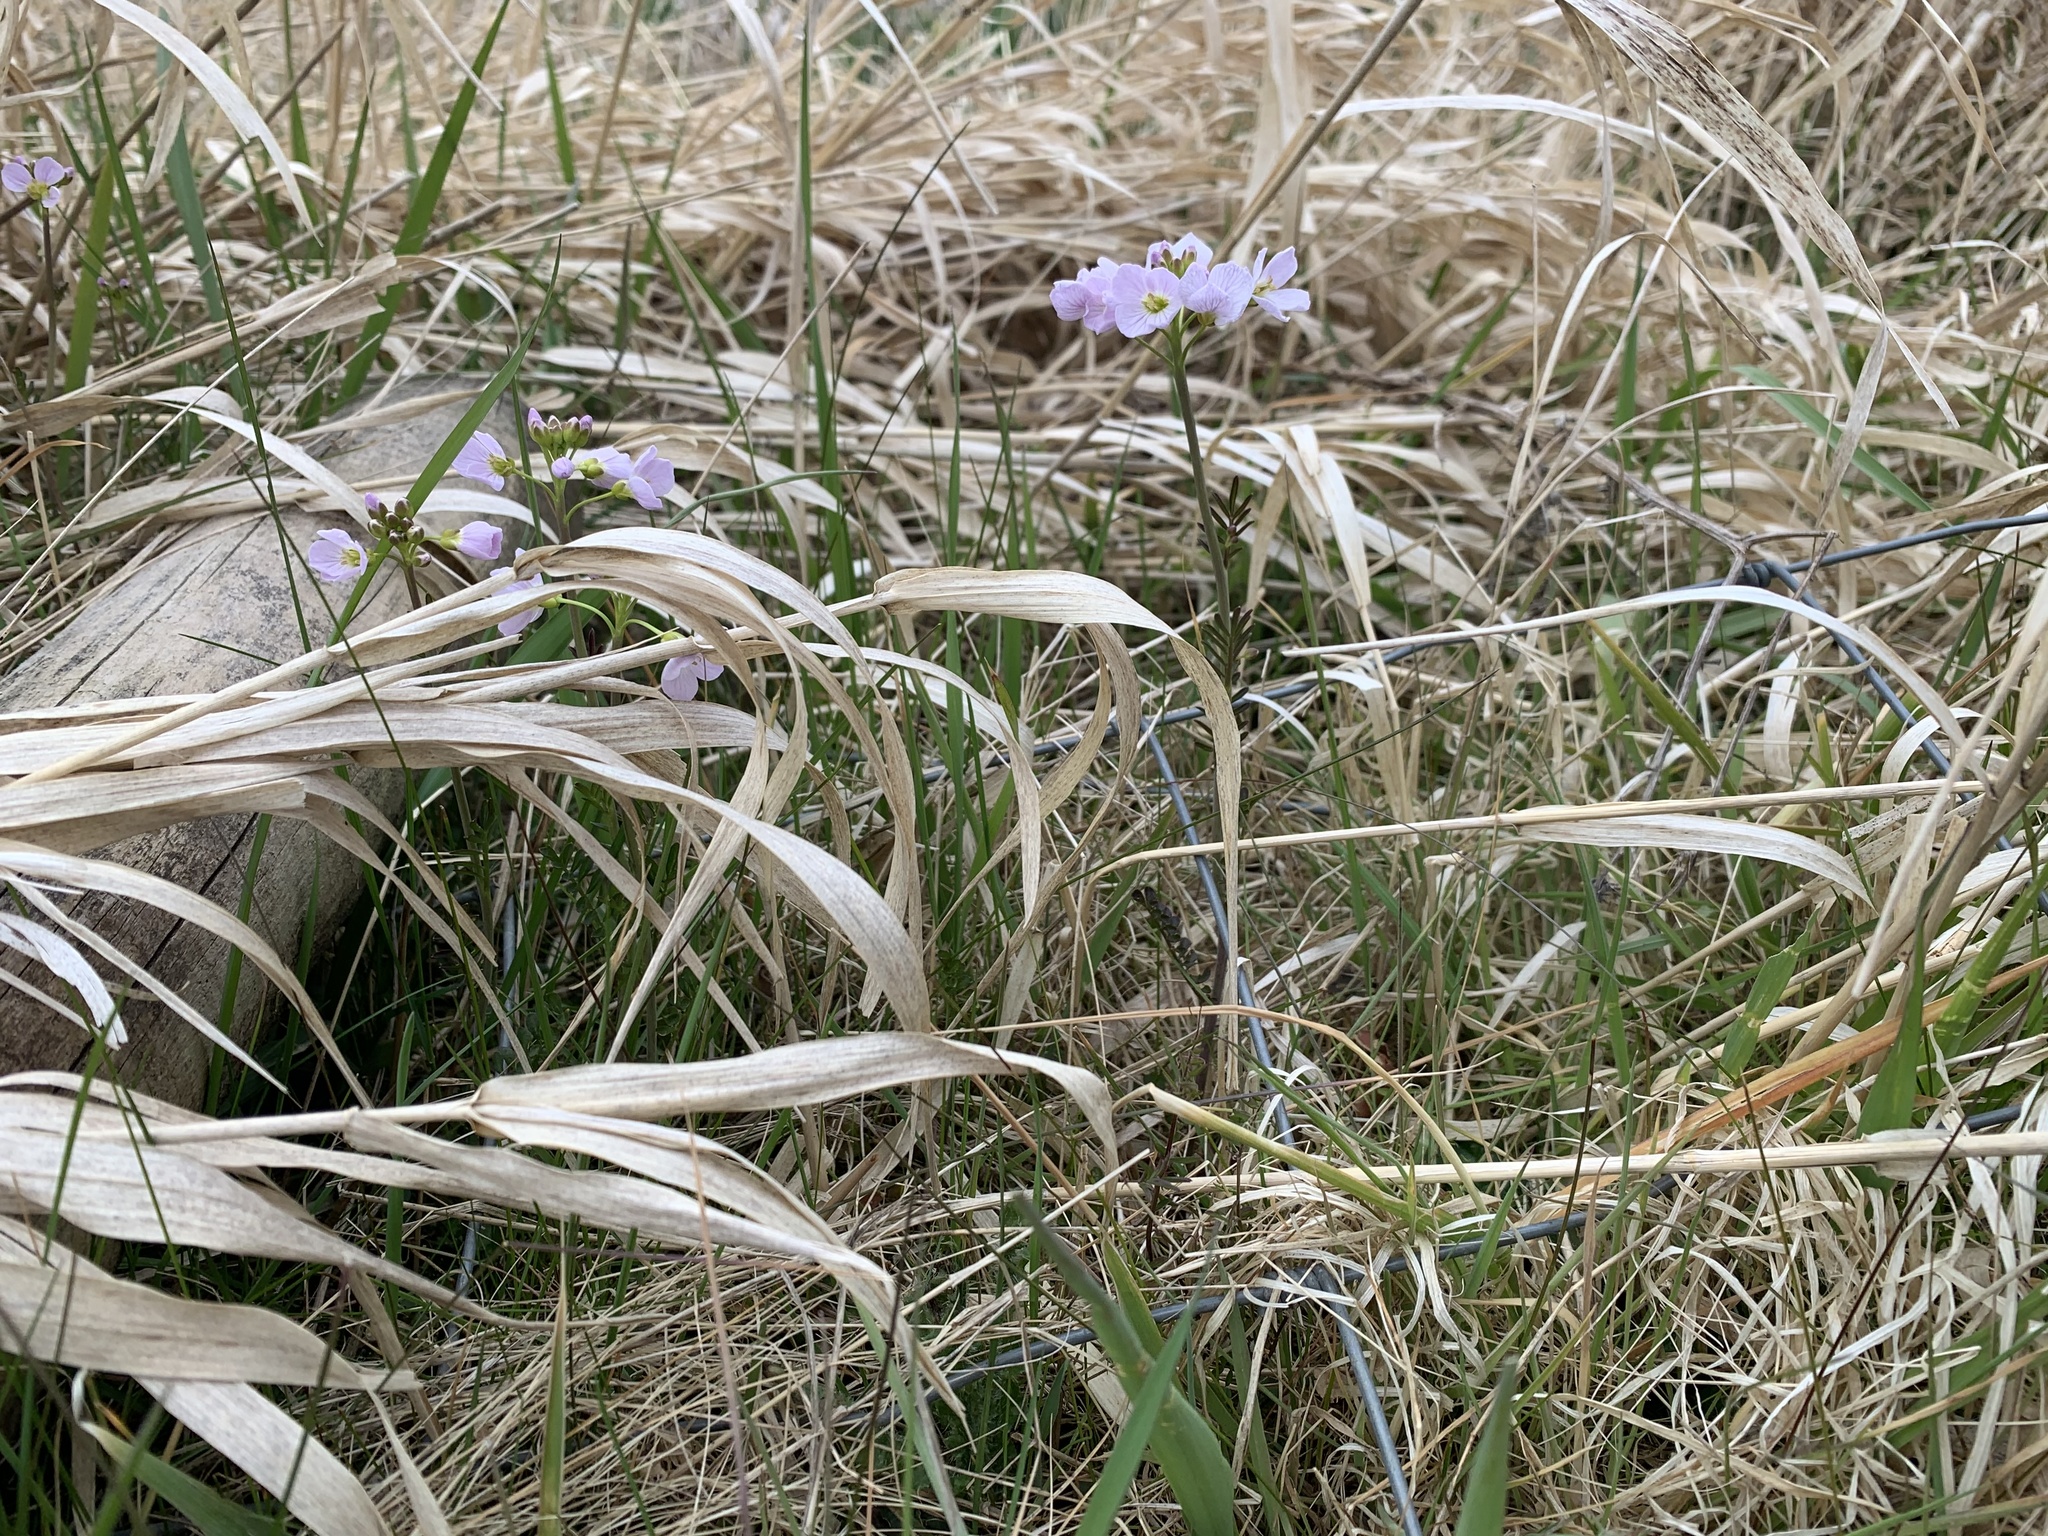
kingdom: Plantae
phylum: Tracheophyta
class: Magnoliopsida
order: Brassicales
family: Brassicaceae
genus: Cardamine
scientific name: Cardamine pratensis
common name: Cuckoo flower
